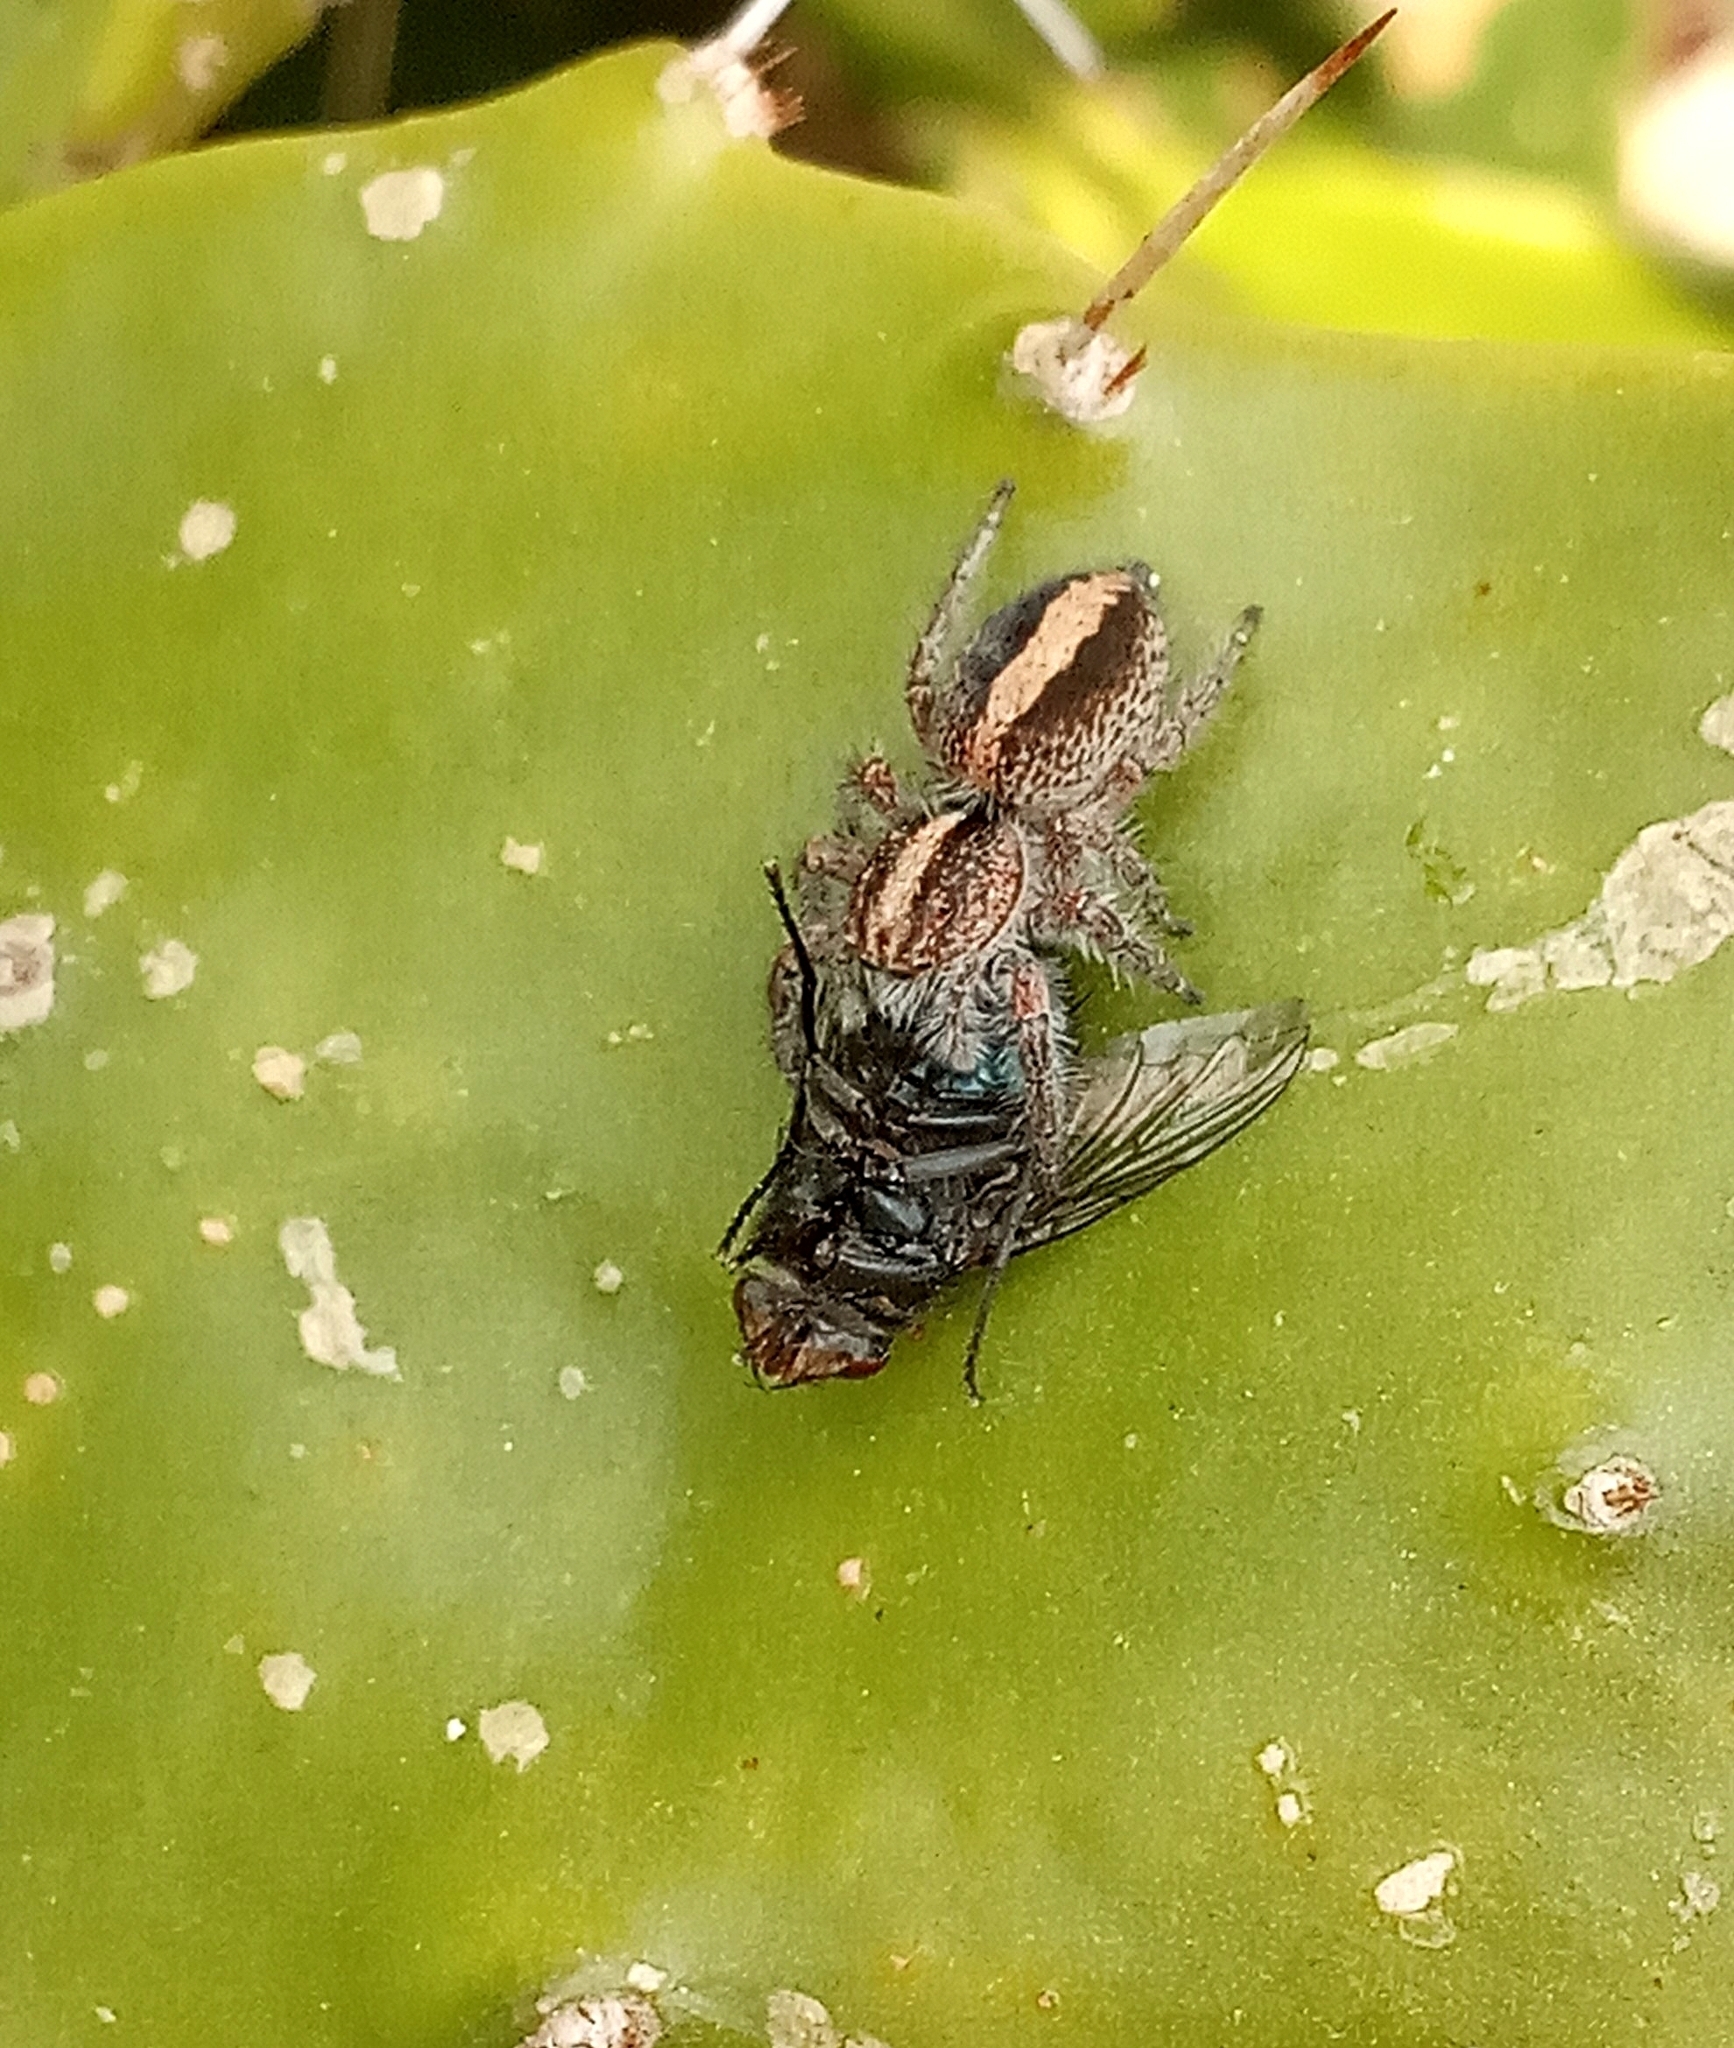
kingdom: Animalia
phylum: Arthropoda
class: Arachnida
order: Araneae
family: Salticidae
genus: Megafreya
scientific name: Megafreya sutrix
